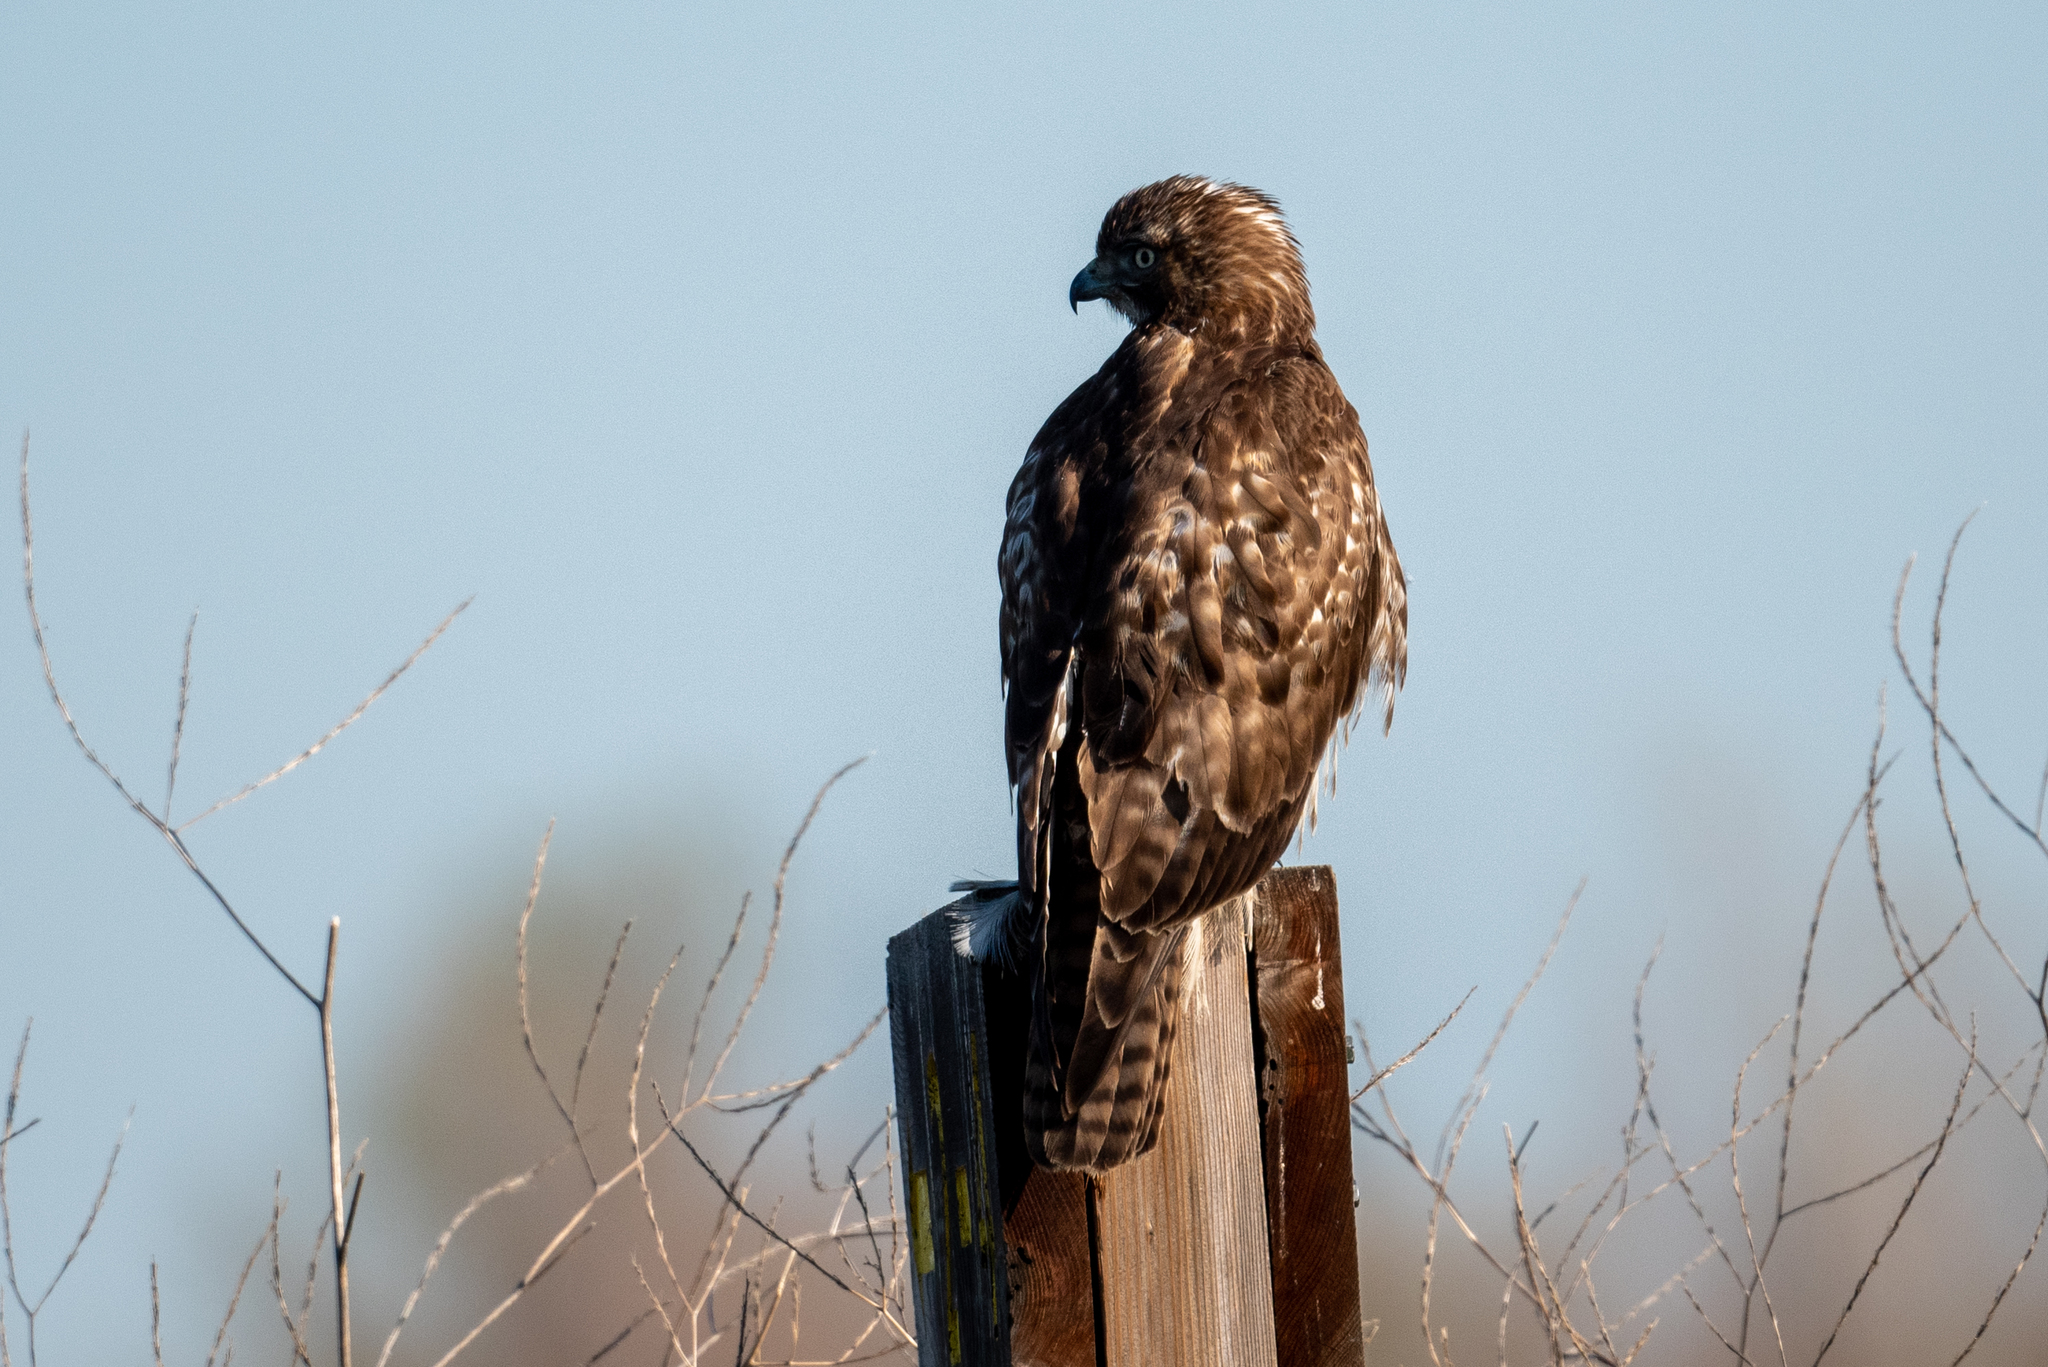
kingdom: Animalia
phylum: Chordata
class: Aves
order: Accipitriformes
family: Accipitridae
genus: Buteo
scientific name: Buteo jamaicensis
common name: Red-tailed hawk
